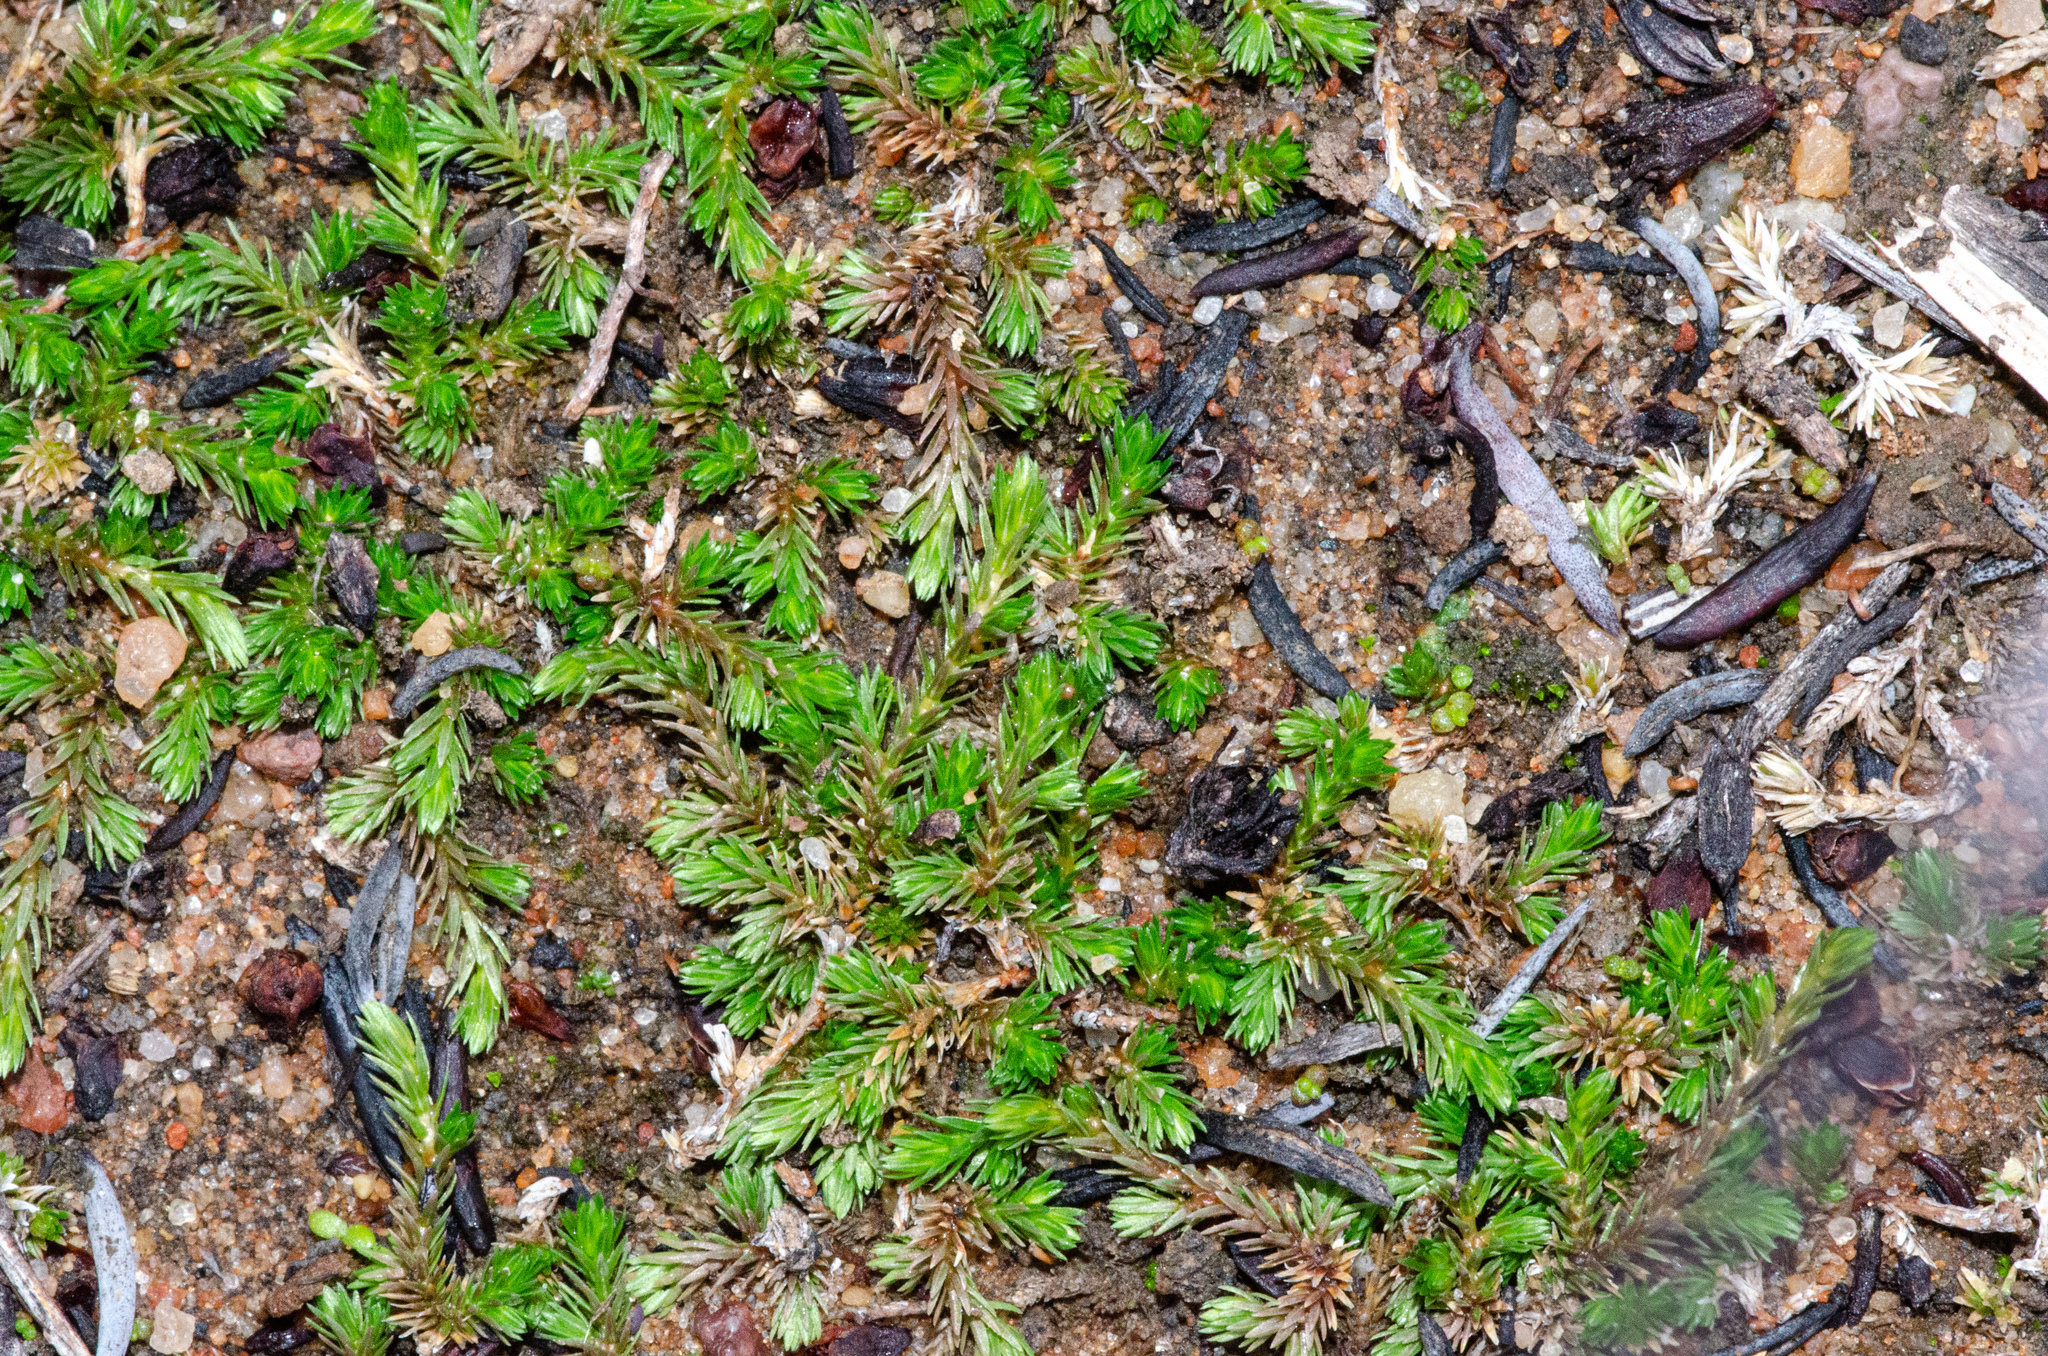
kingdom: Plantae
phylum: Tracheophyta
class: Lycopodiopsida
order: Selaginellales
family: Selaginellaceae
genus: Selaginella
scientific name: Selaginella cinerascens
